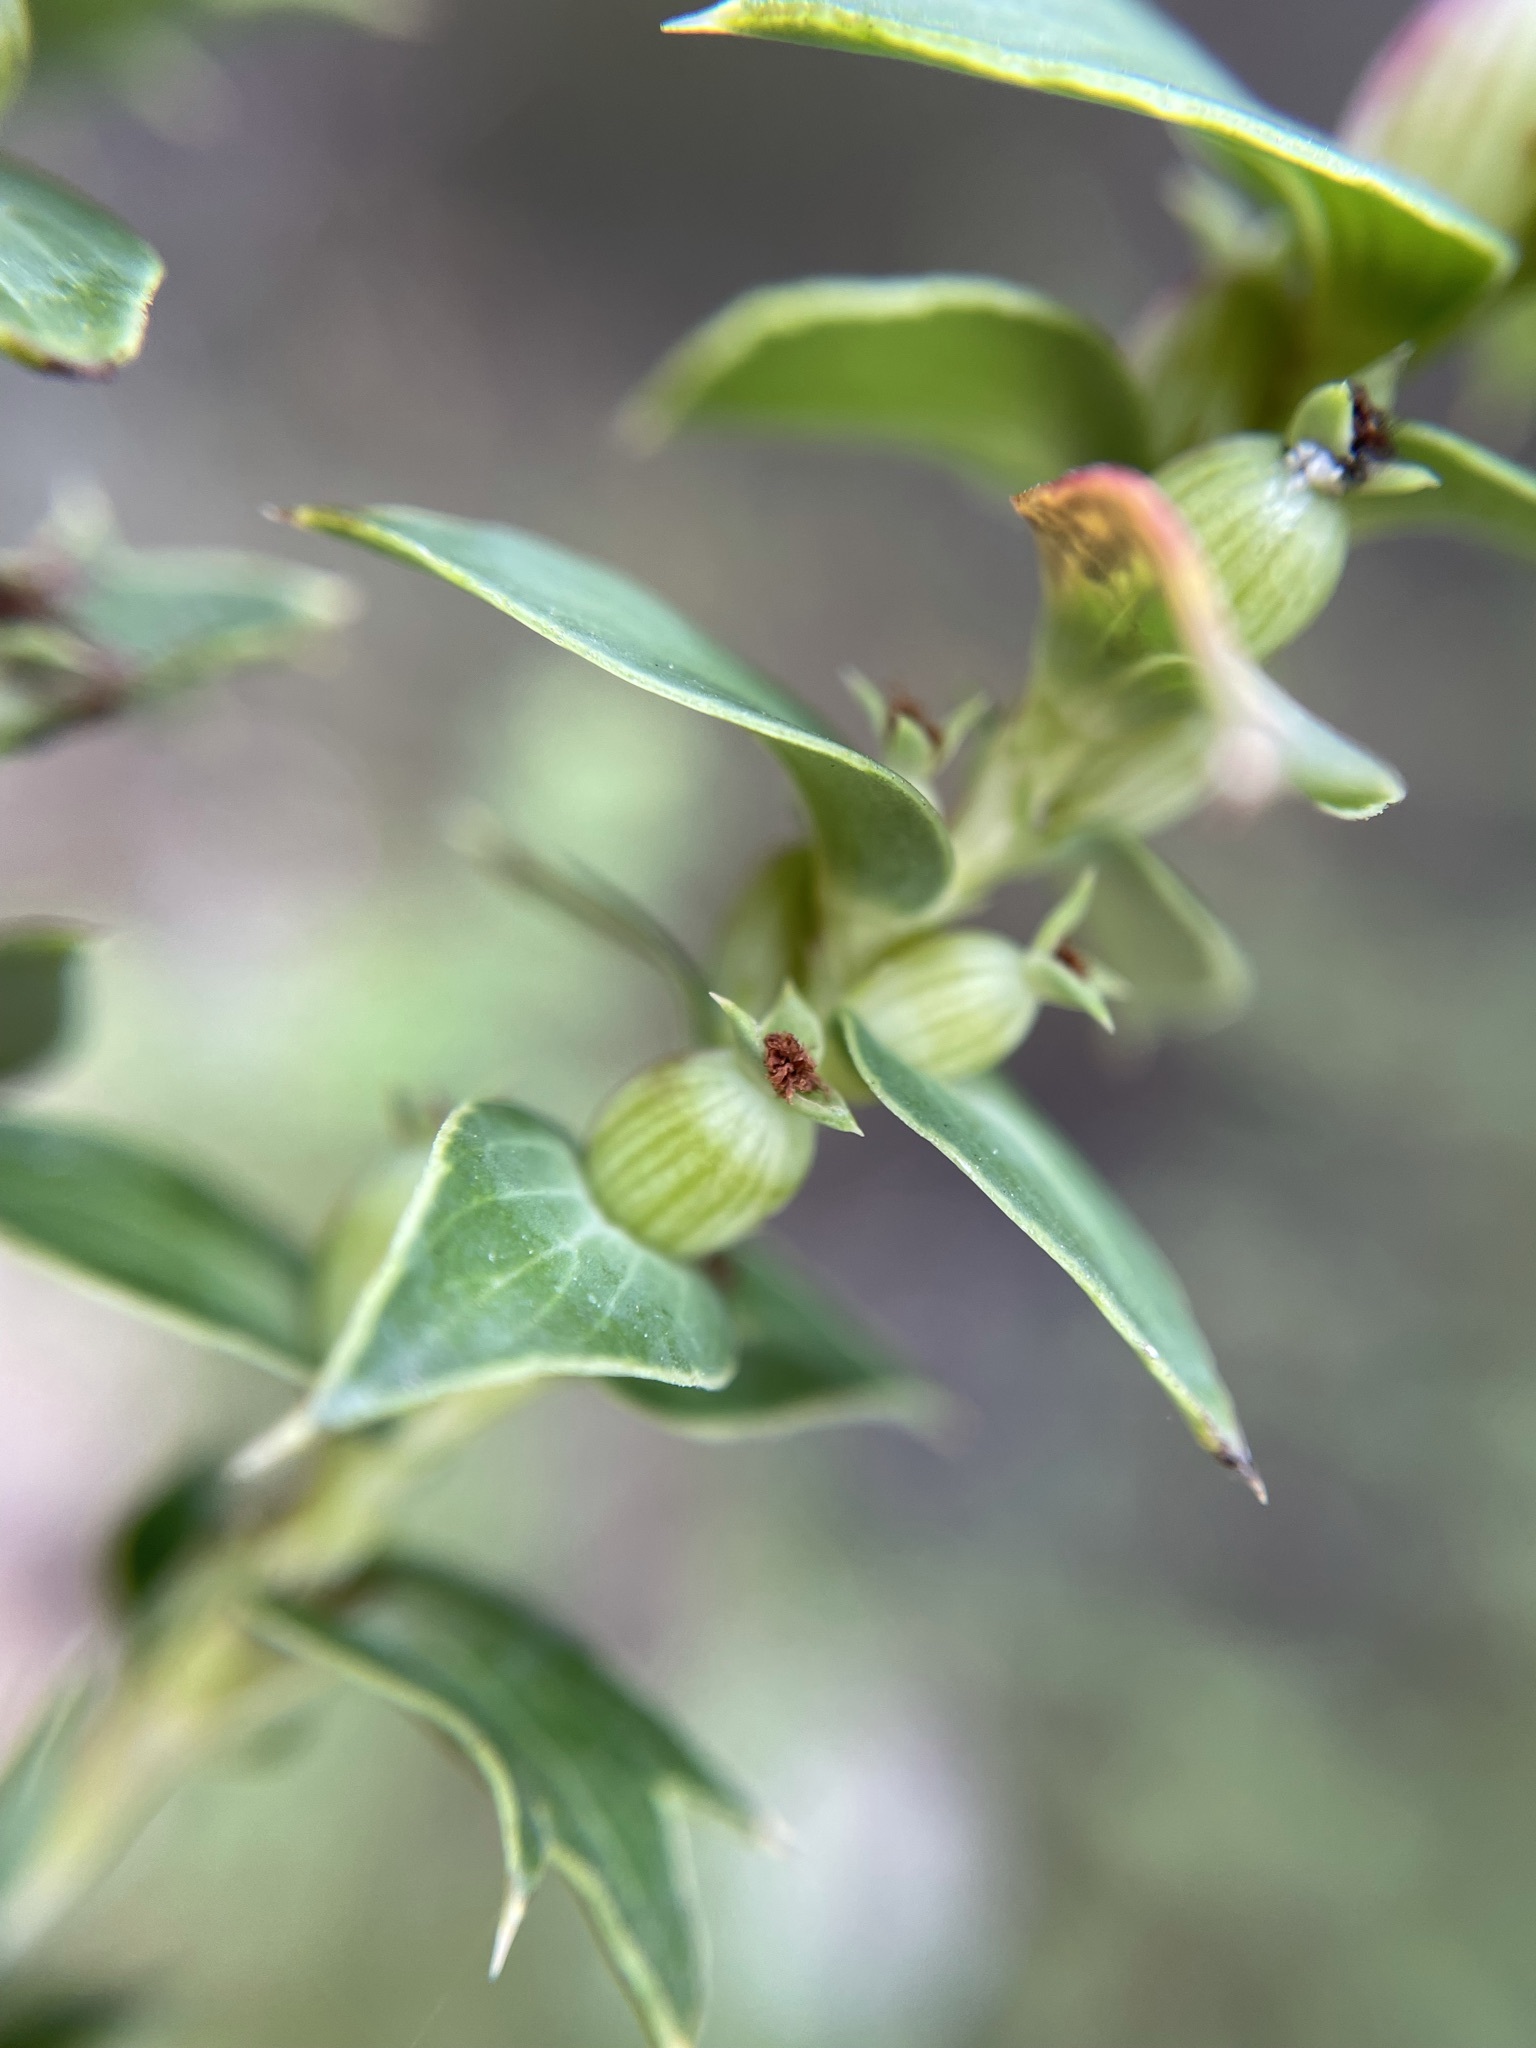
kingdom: Plantae
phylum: Tracheophyta
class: Magnoliopsida
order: Rosales
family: Rosaceae
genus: Cliffortia
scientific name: Cliffortia ilicifolia
